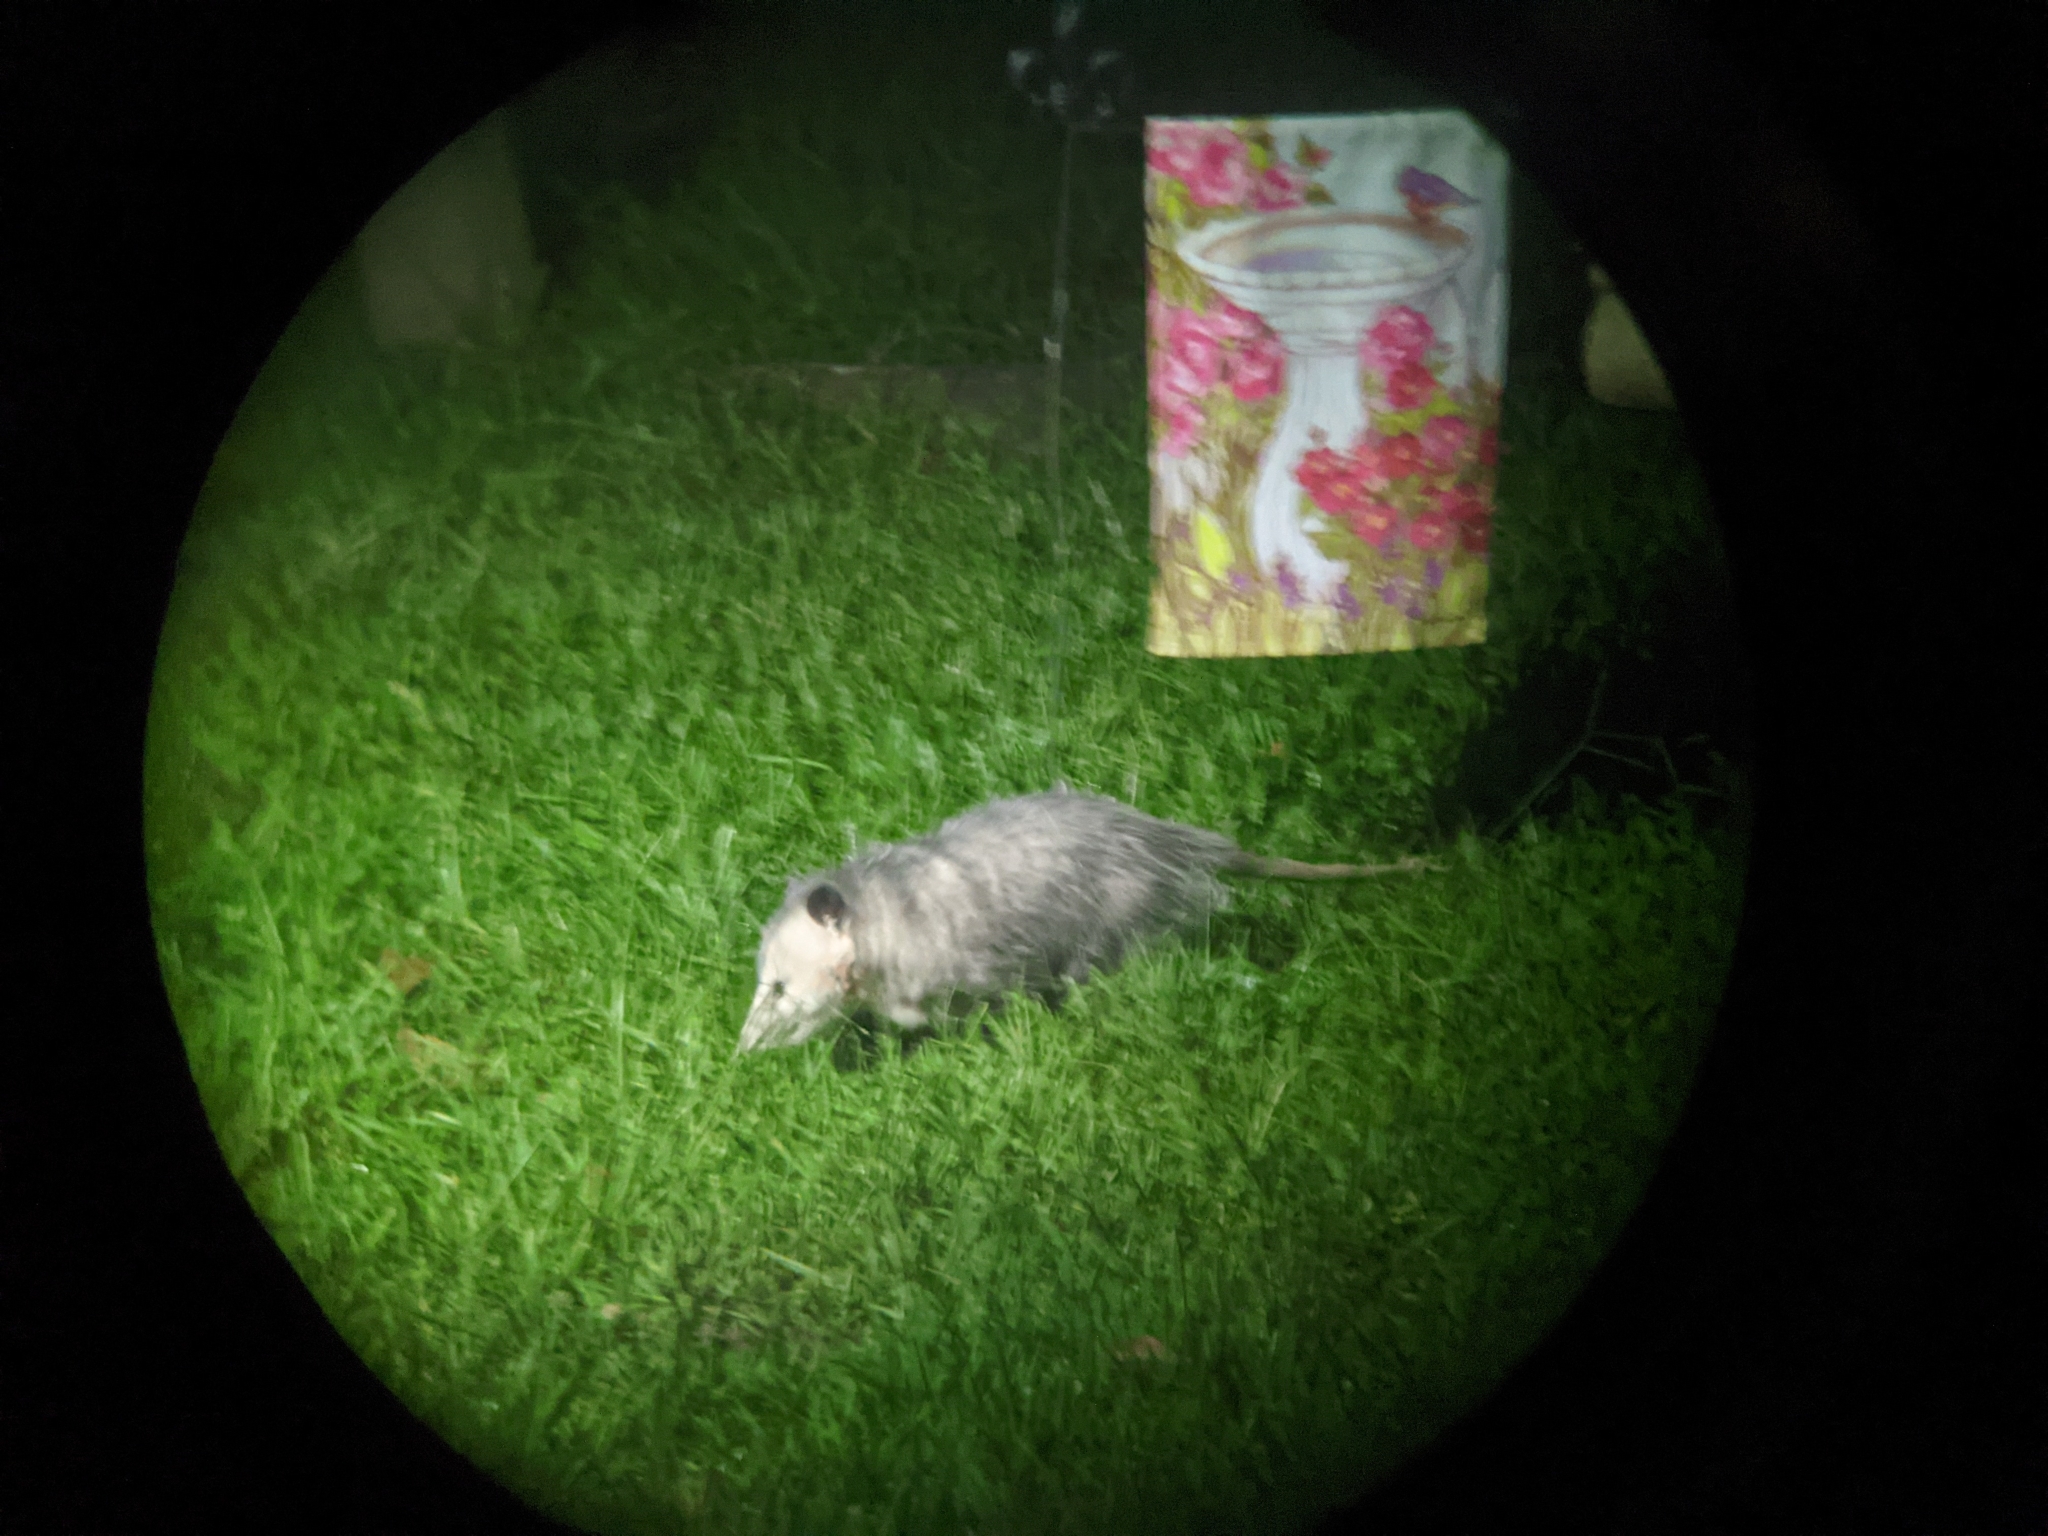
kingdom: Animalia
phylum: Chordata
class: Mammalia
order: Didelphimorphia
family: Didelphidae
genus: Didelphis
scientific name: Didelphis virginiana
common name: Virginia opossum
